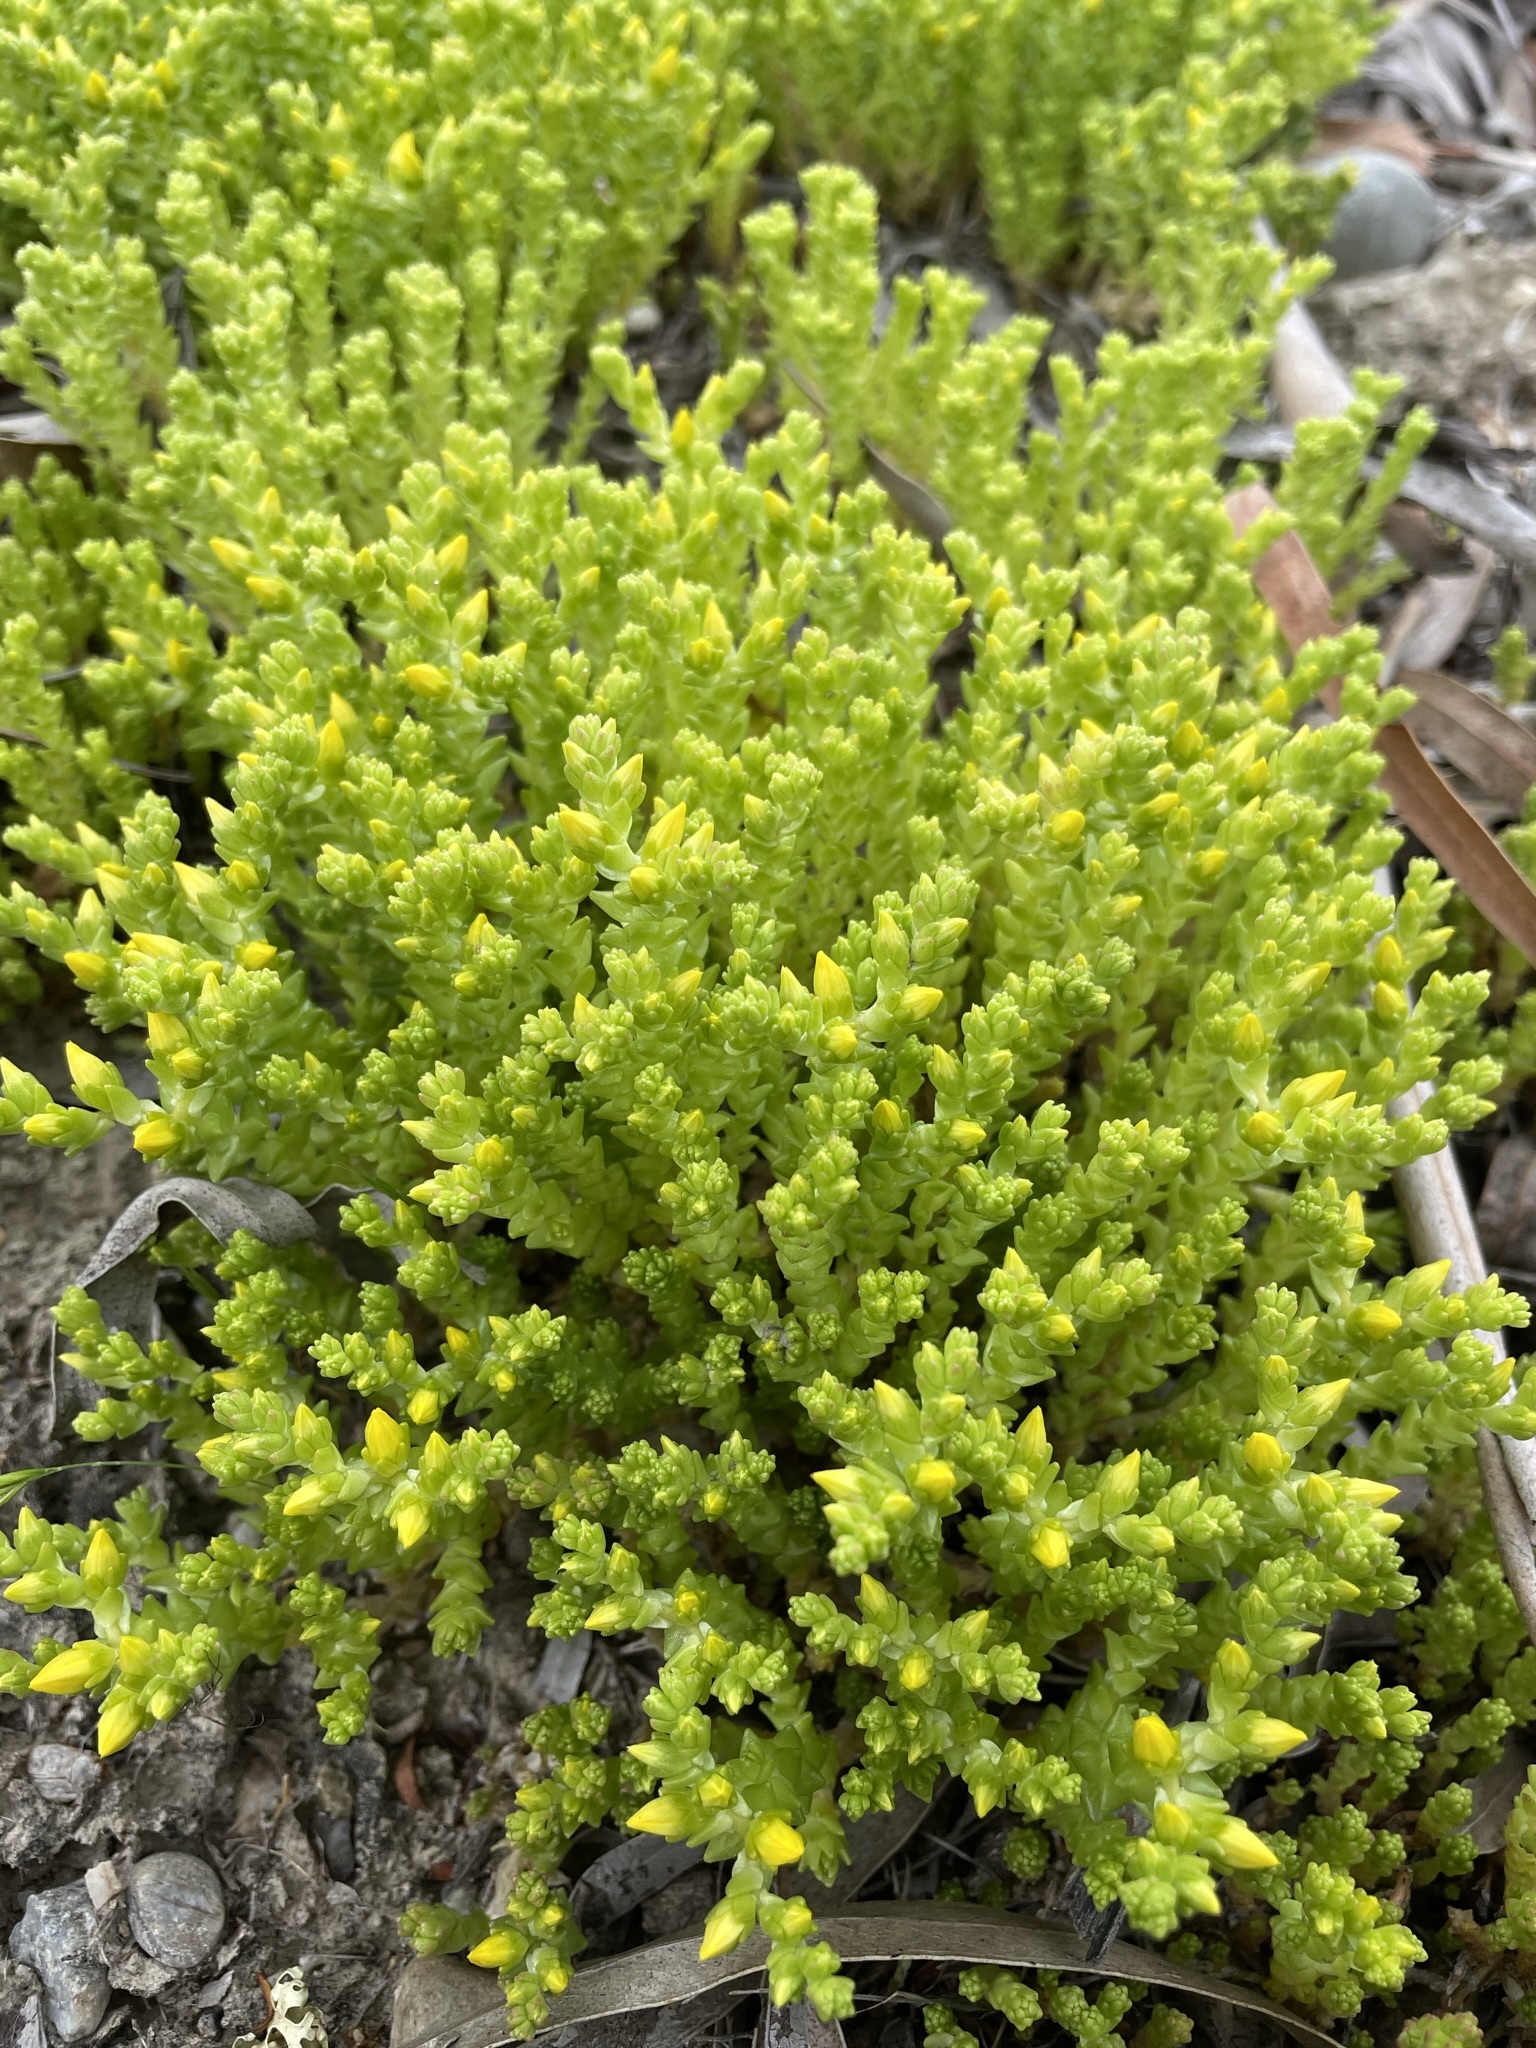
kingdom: Plantae
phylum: Tracheophyta
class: Magnoliopsida
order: Saxifragales
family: Crassulaceae
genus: Sedum
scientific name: Sedum acre
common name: Biting stonecrop
